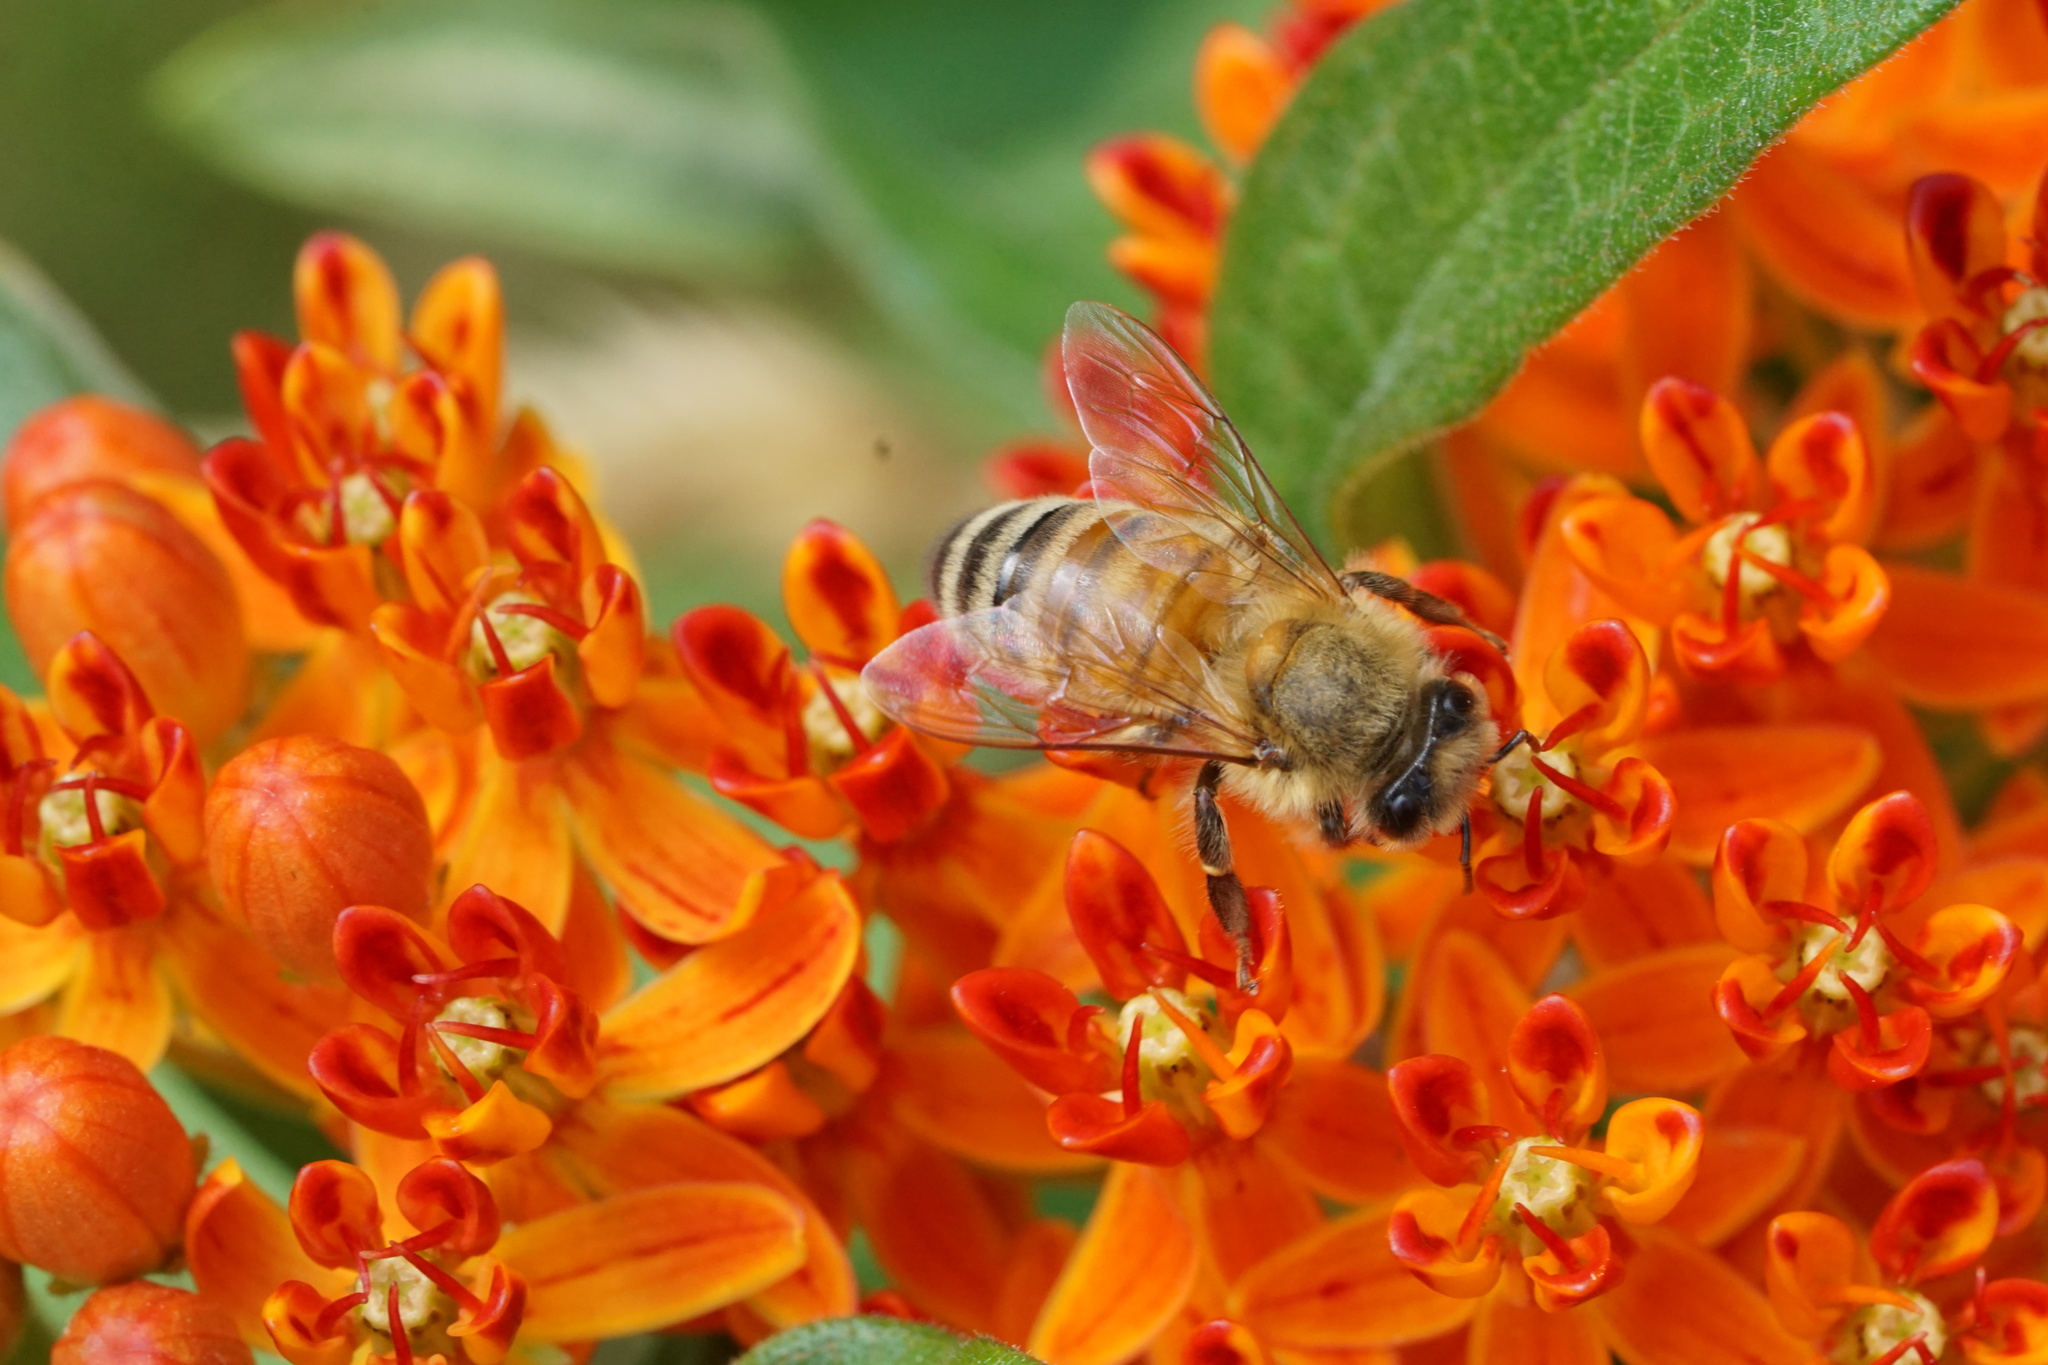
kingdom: Animalia
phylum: Arthropoda
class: Insecta
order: Hymenoptera
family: Apidae
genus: Apis
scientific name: Apis mellifera
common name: Honey bee
